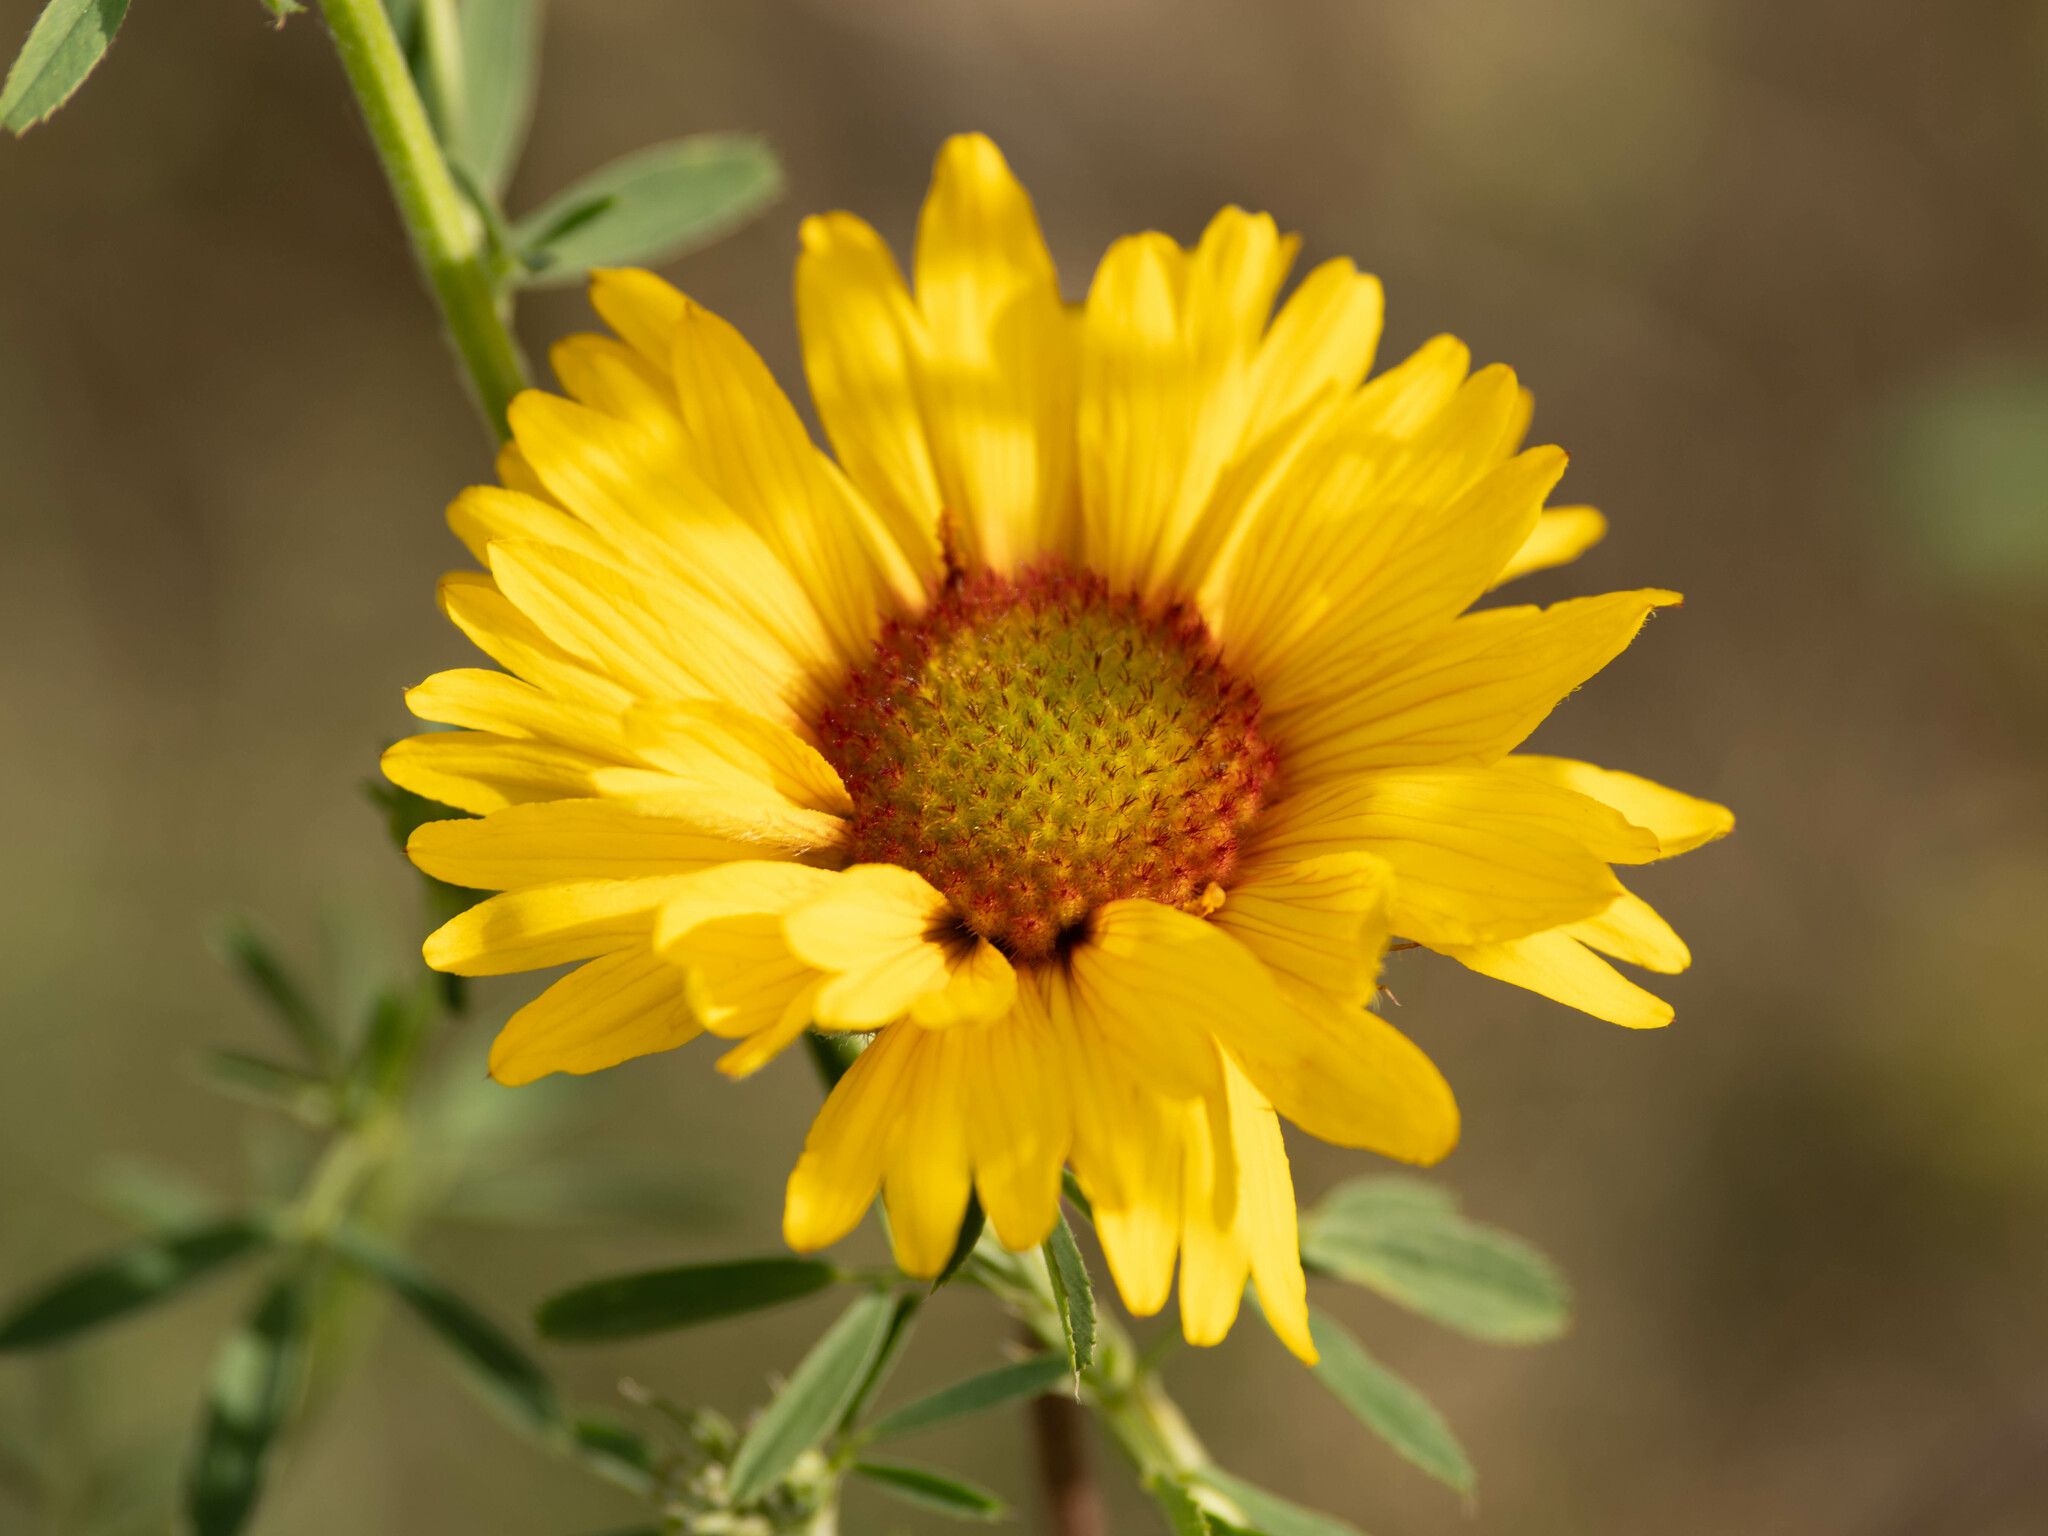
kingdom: Plantae
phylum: Tracheophyta
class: Magnoliopsida
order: Asterales
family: Asteraceae
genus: Gaillardia
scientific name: Gaillardia aristata
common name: Blanket-flower
